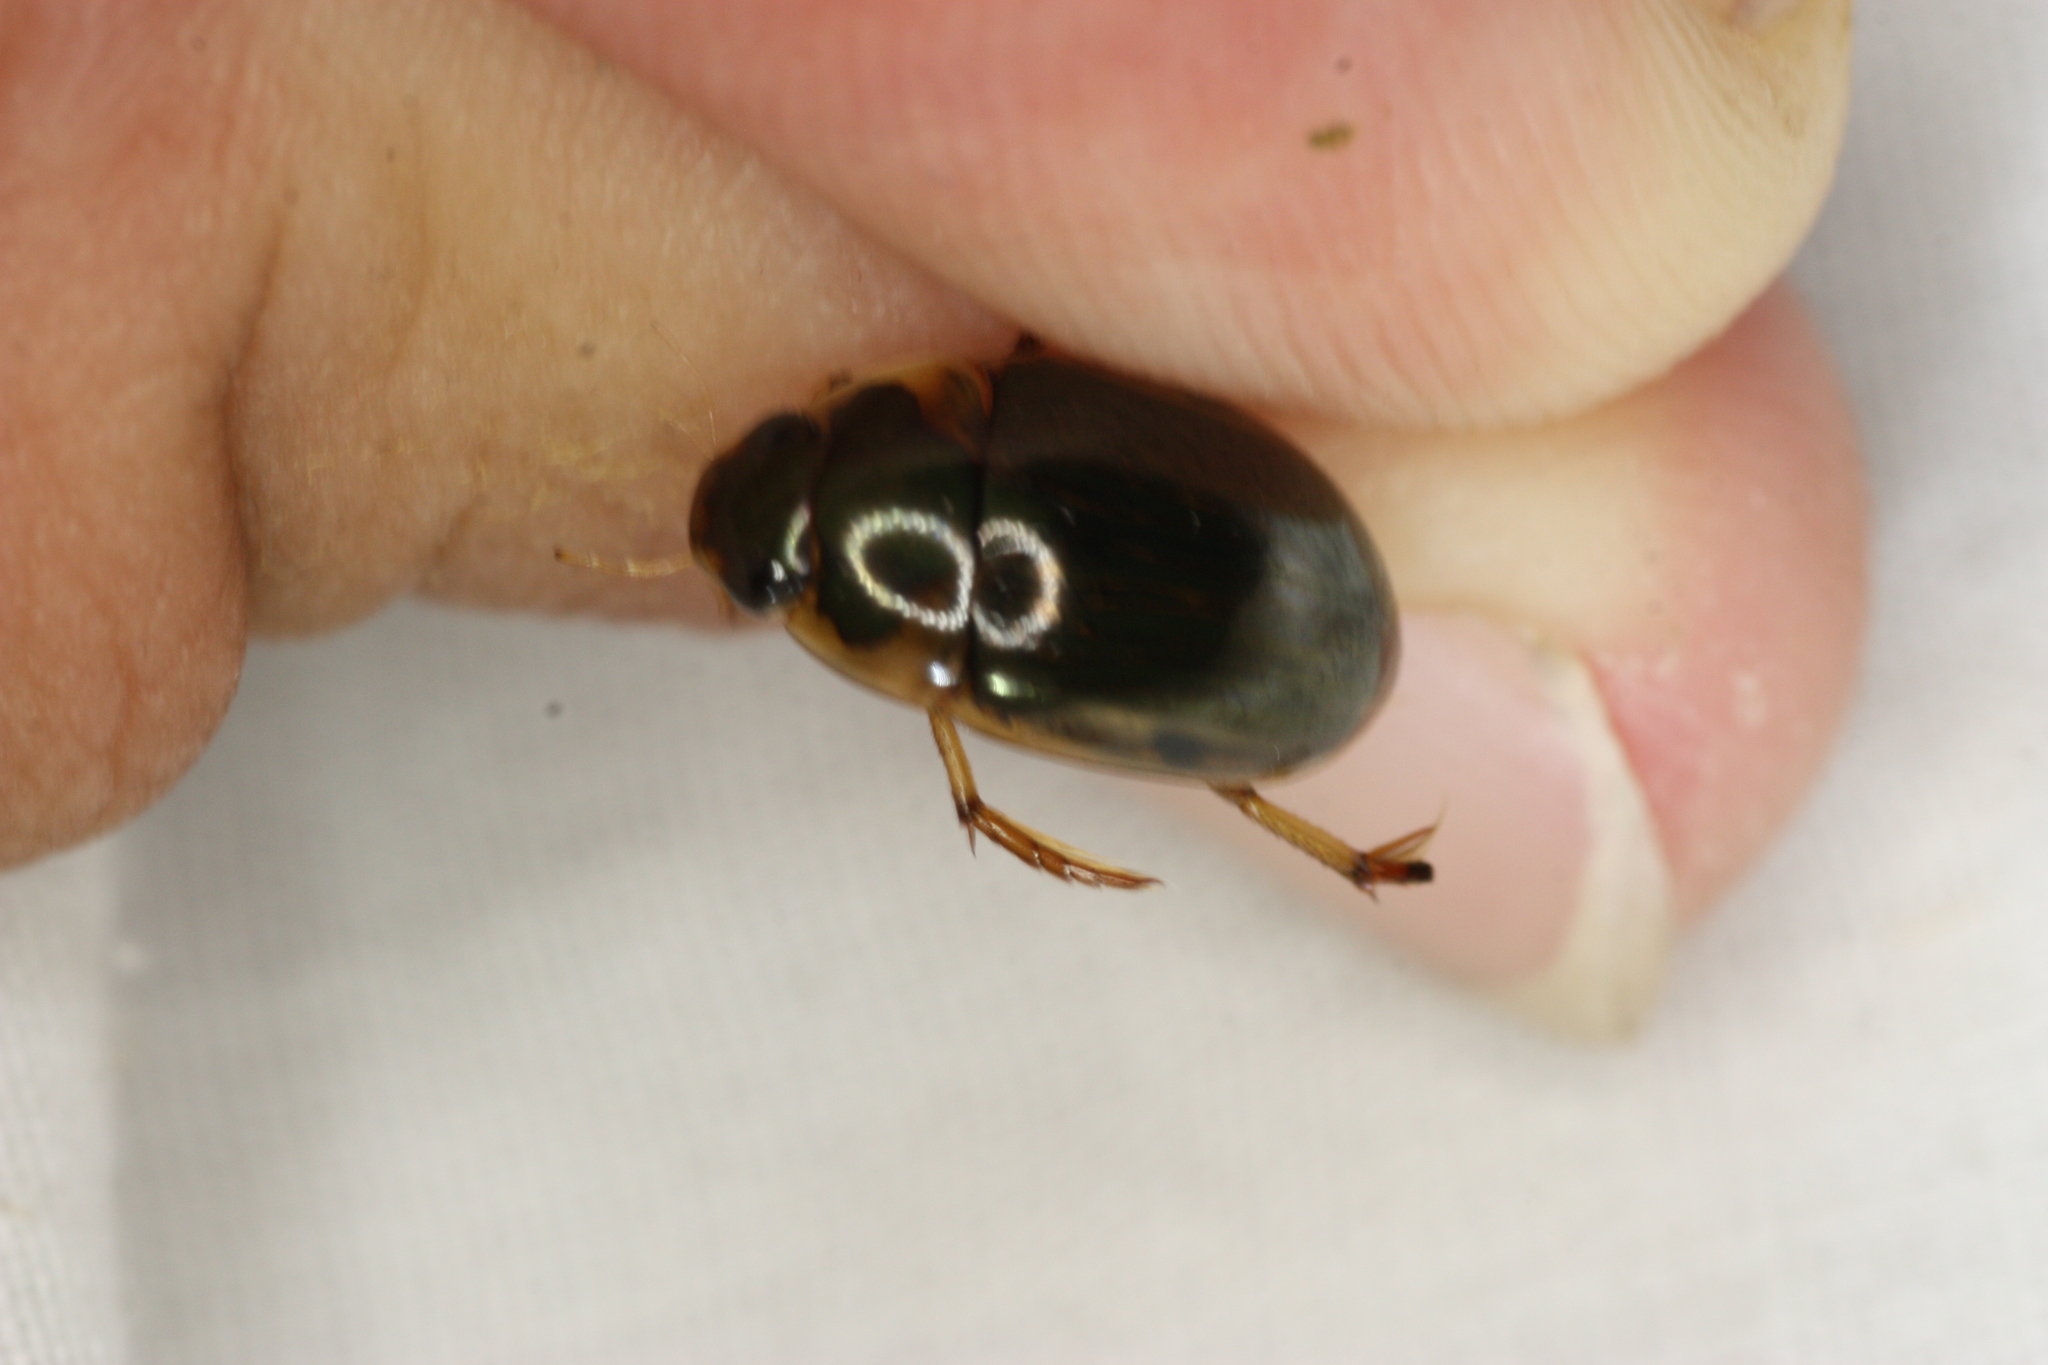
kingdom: Animalia
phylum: Arthropoda
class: Insecta
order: Coleoptera
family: Hydrophilidae
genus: Tropisternus
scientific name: Tropisternus collaris
